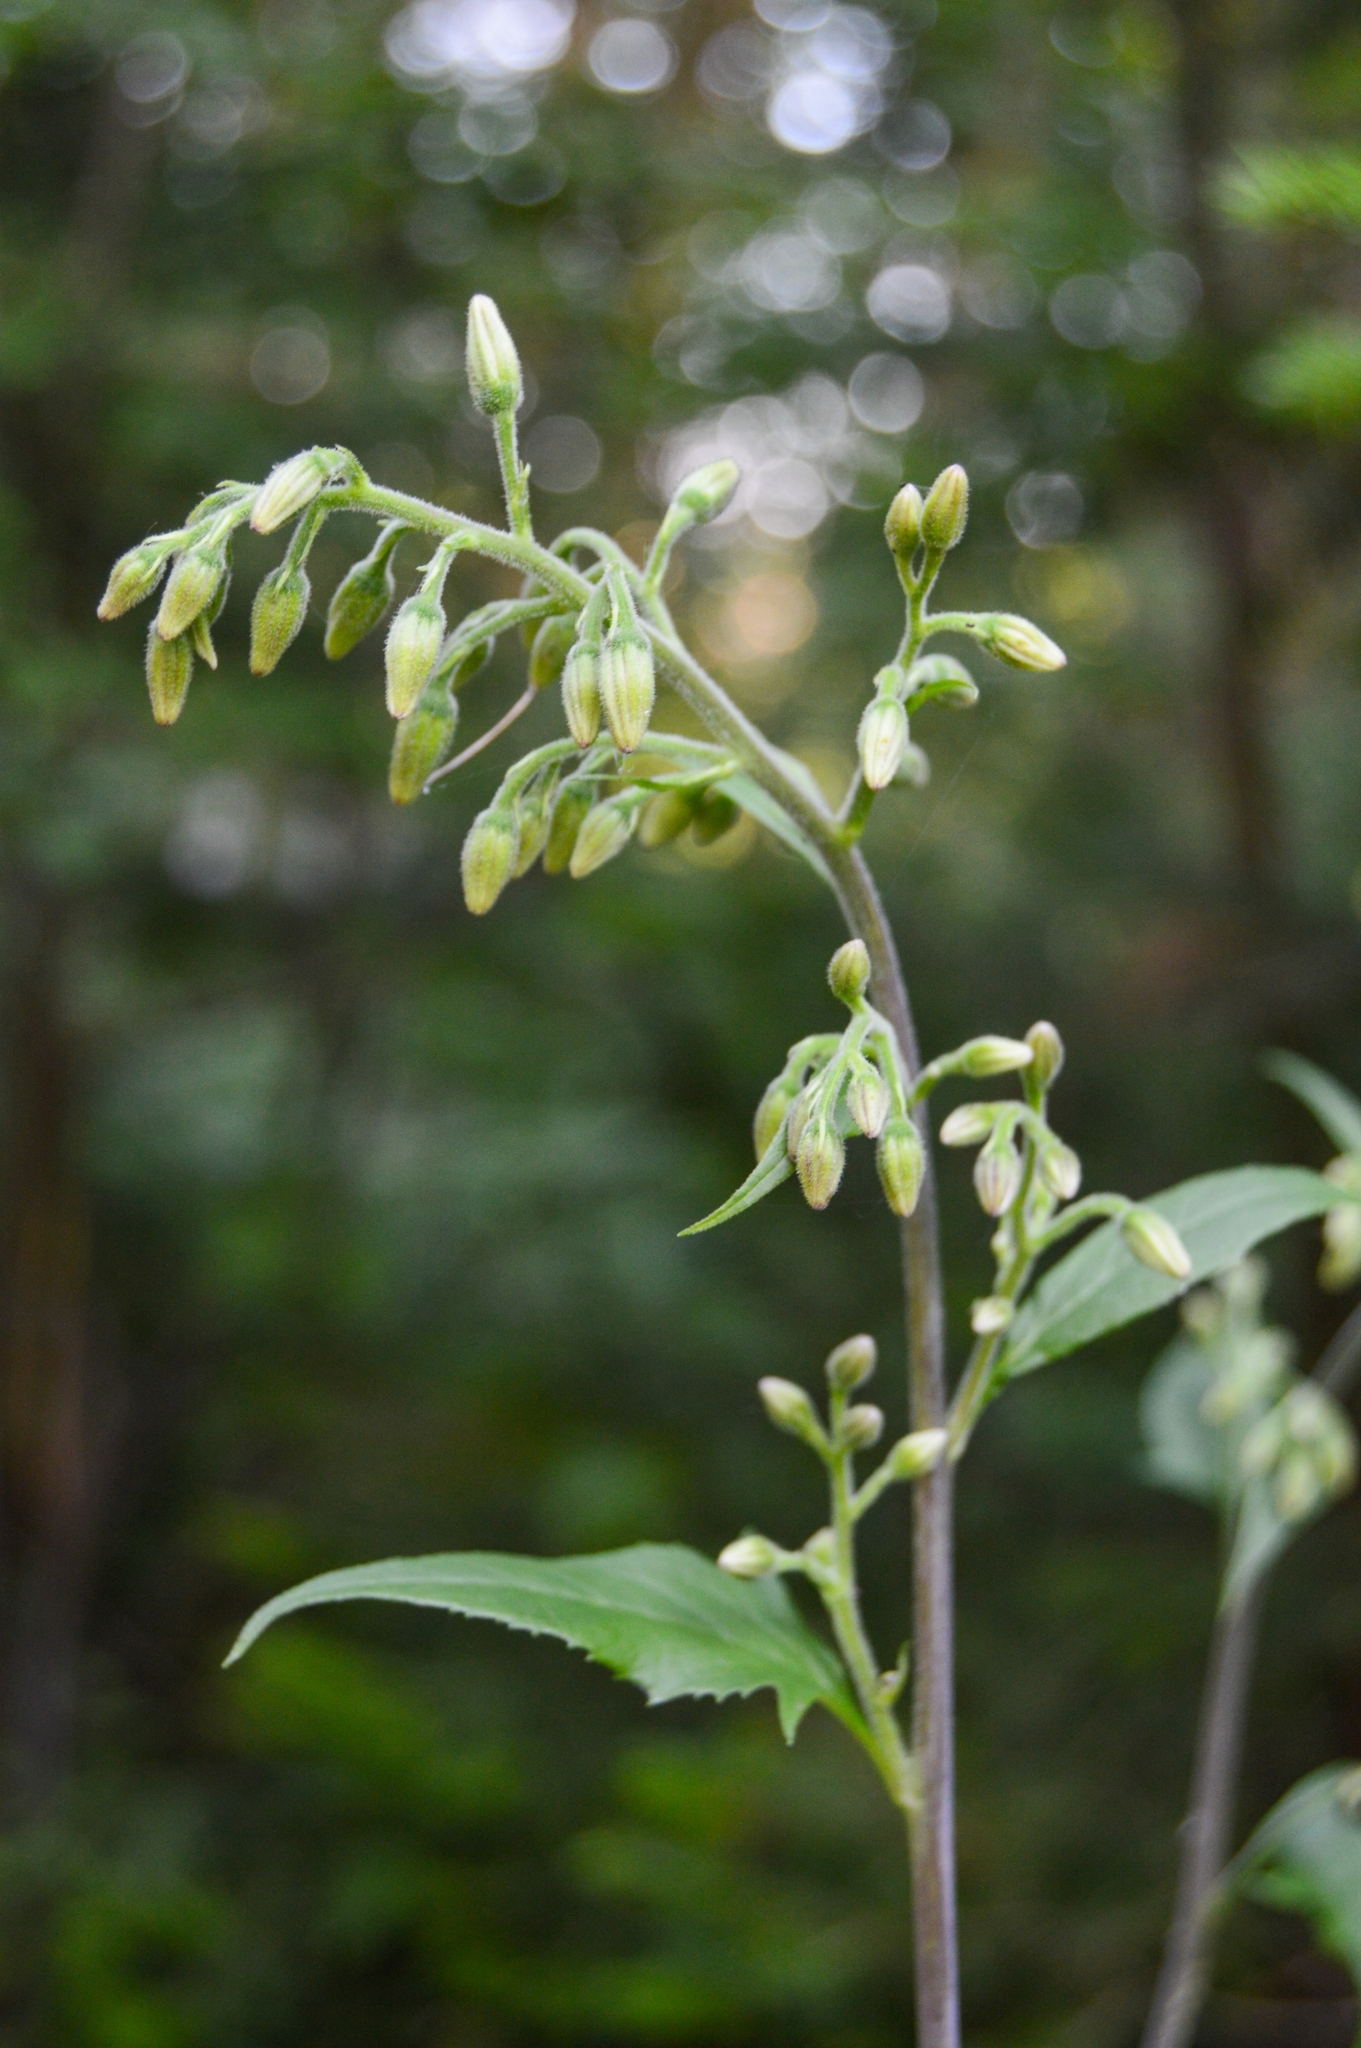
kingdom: Plantae
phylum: Tracheophyta
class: Magnoliopsida
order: Asterales
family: Asteraceae
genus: Parasenecio
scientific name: Parasenecio hastatus
